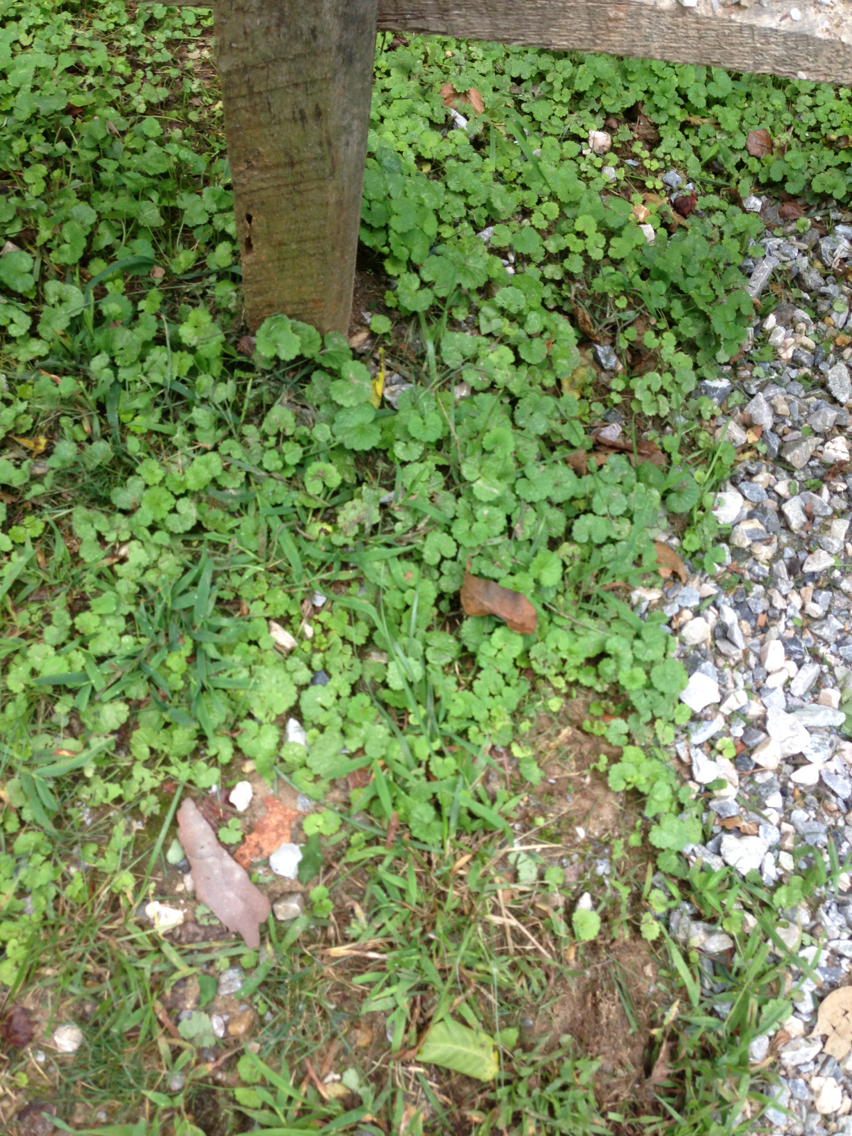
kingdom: Plantae
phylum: Tracheophyta
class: Magnoliopsida
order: Lamiales
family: Lamiaceae
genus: Glechoma
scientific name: Glechoma hederacea
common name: Ground ivy
